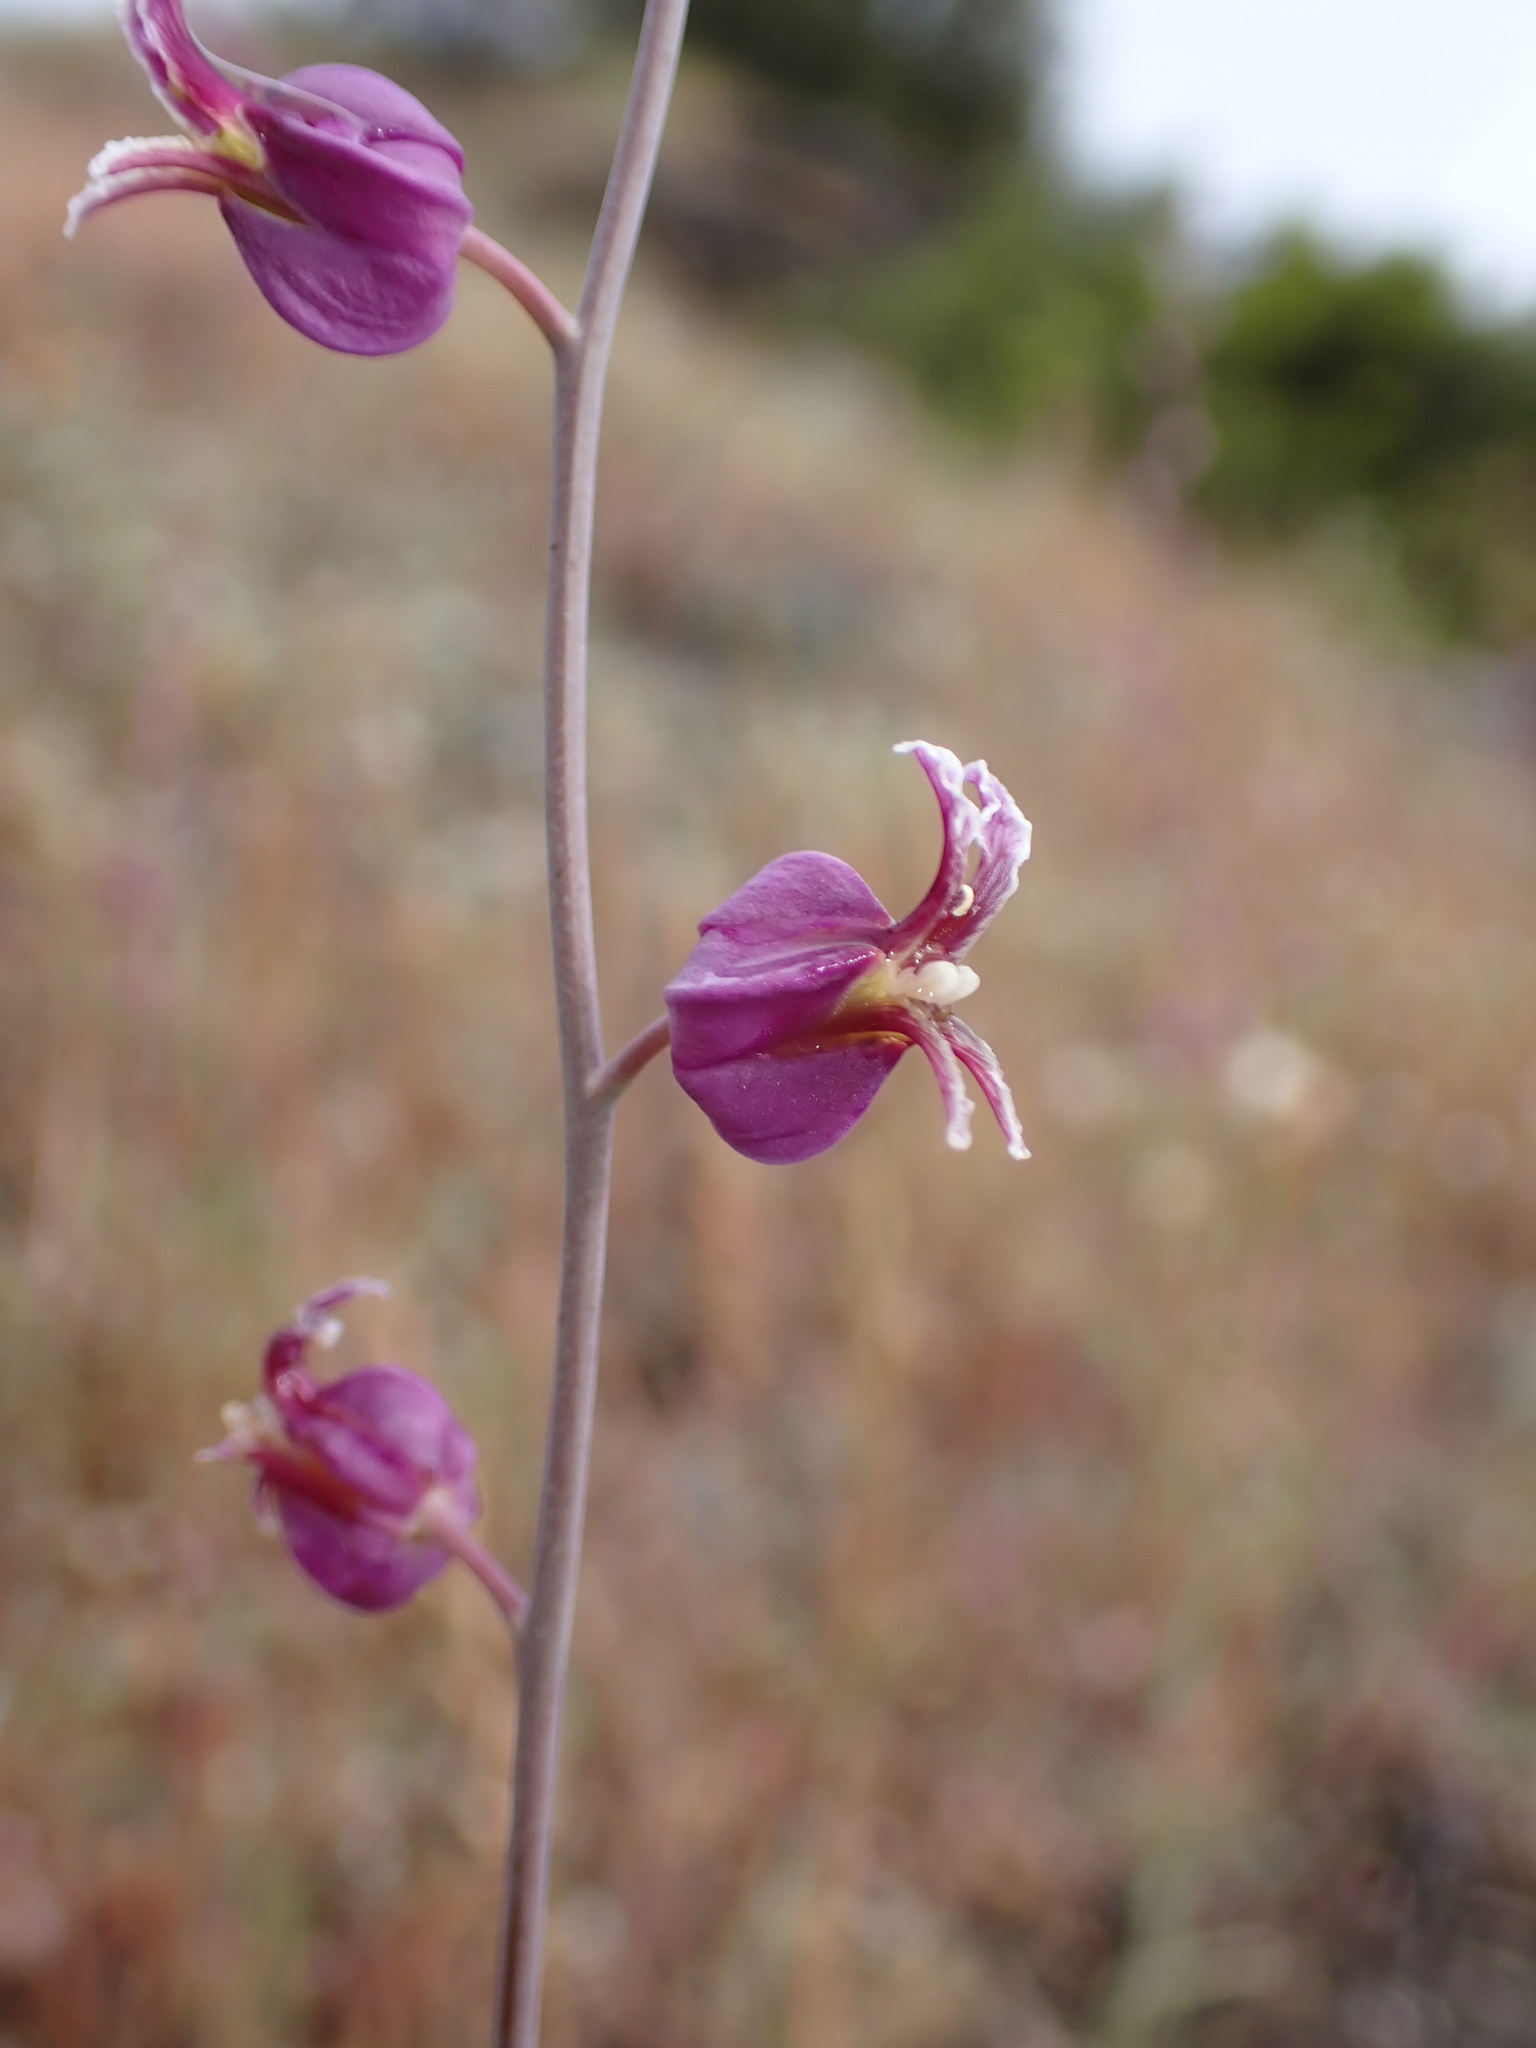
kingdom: Plantae
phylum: Tracheophyta
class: Magnoliopsida
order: Brassicales
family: Brassicaceae
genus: Streptanthus
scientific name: Streptanthus glandulosus
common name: Jewel-flower
